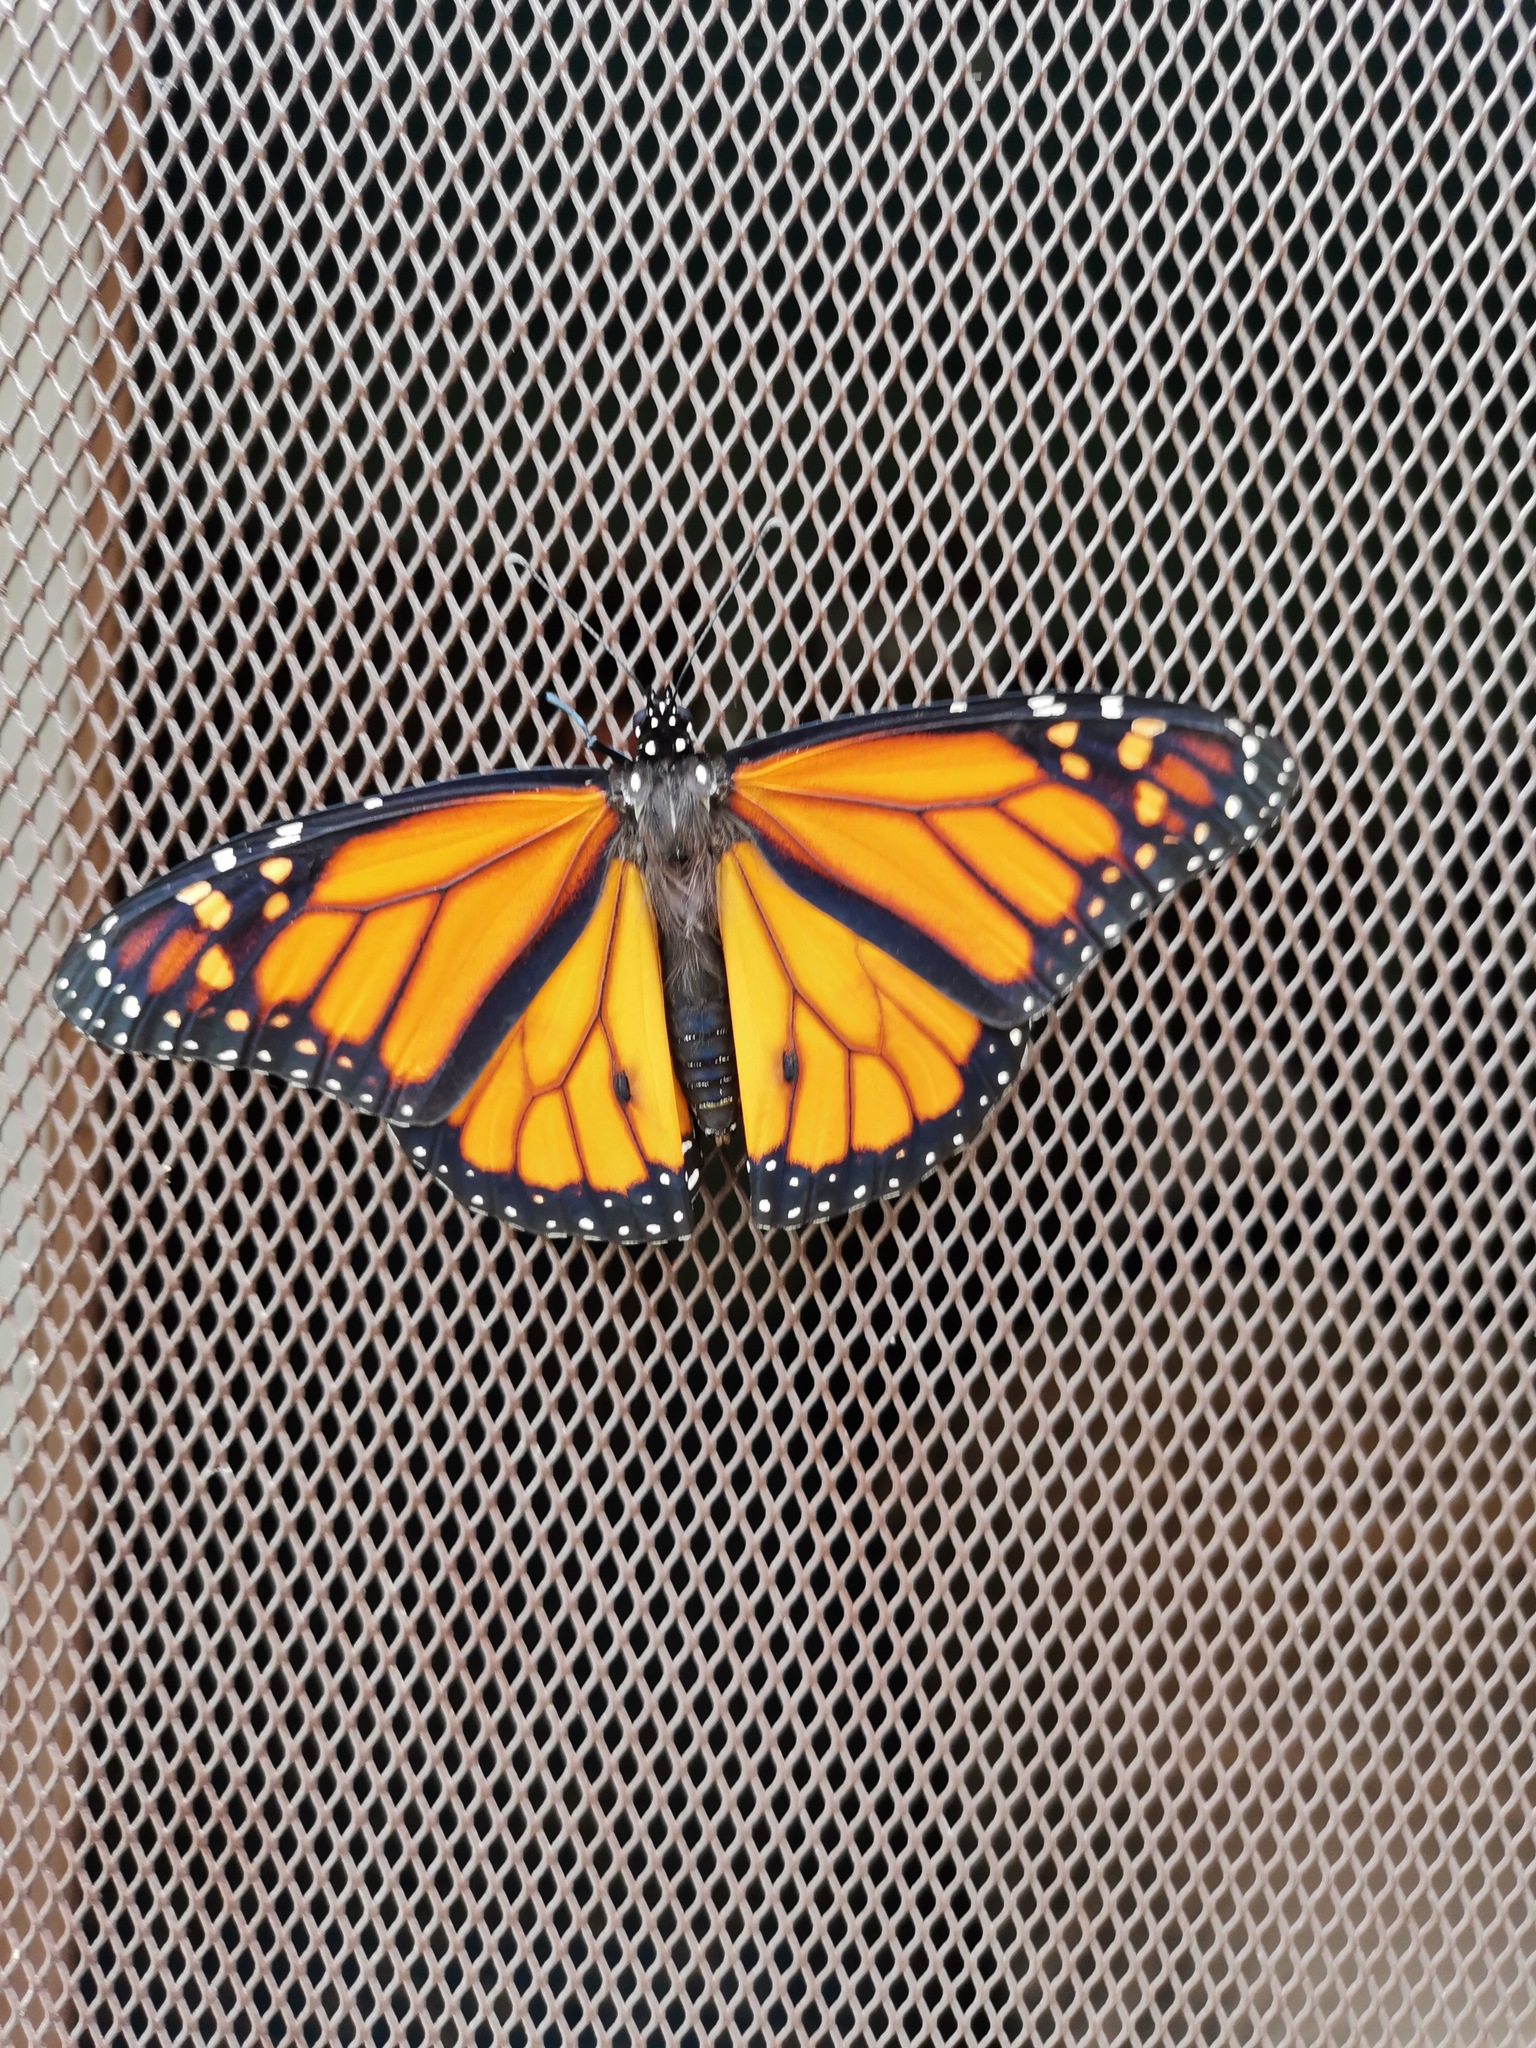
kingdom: Animalia
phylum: Arthropoda
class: Insecta
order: Lepidoptera
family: Nymphalidae
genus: Danaus
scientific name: Danaus plexippus
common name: Monarch
